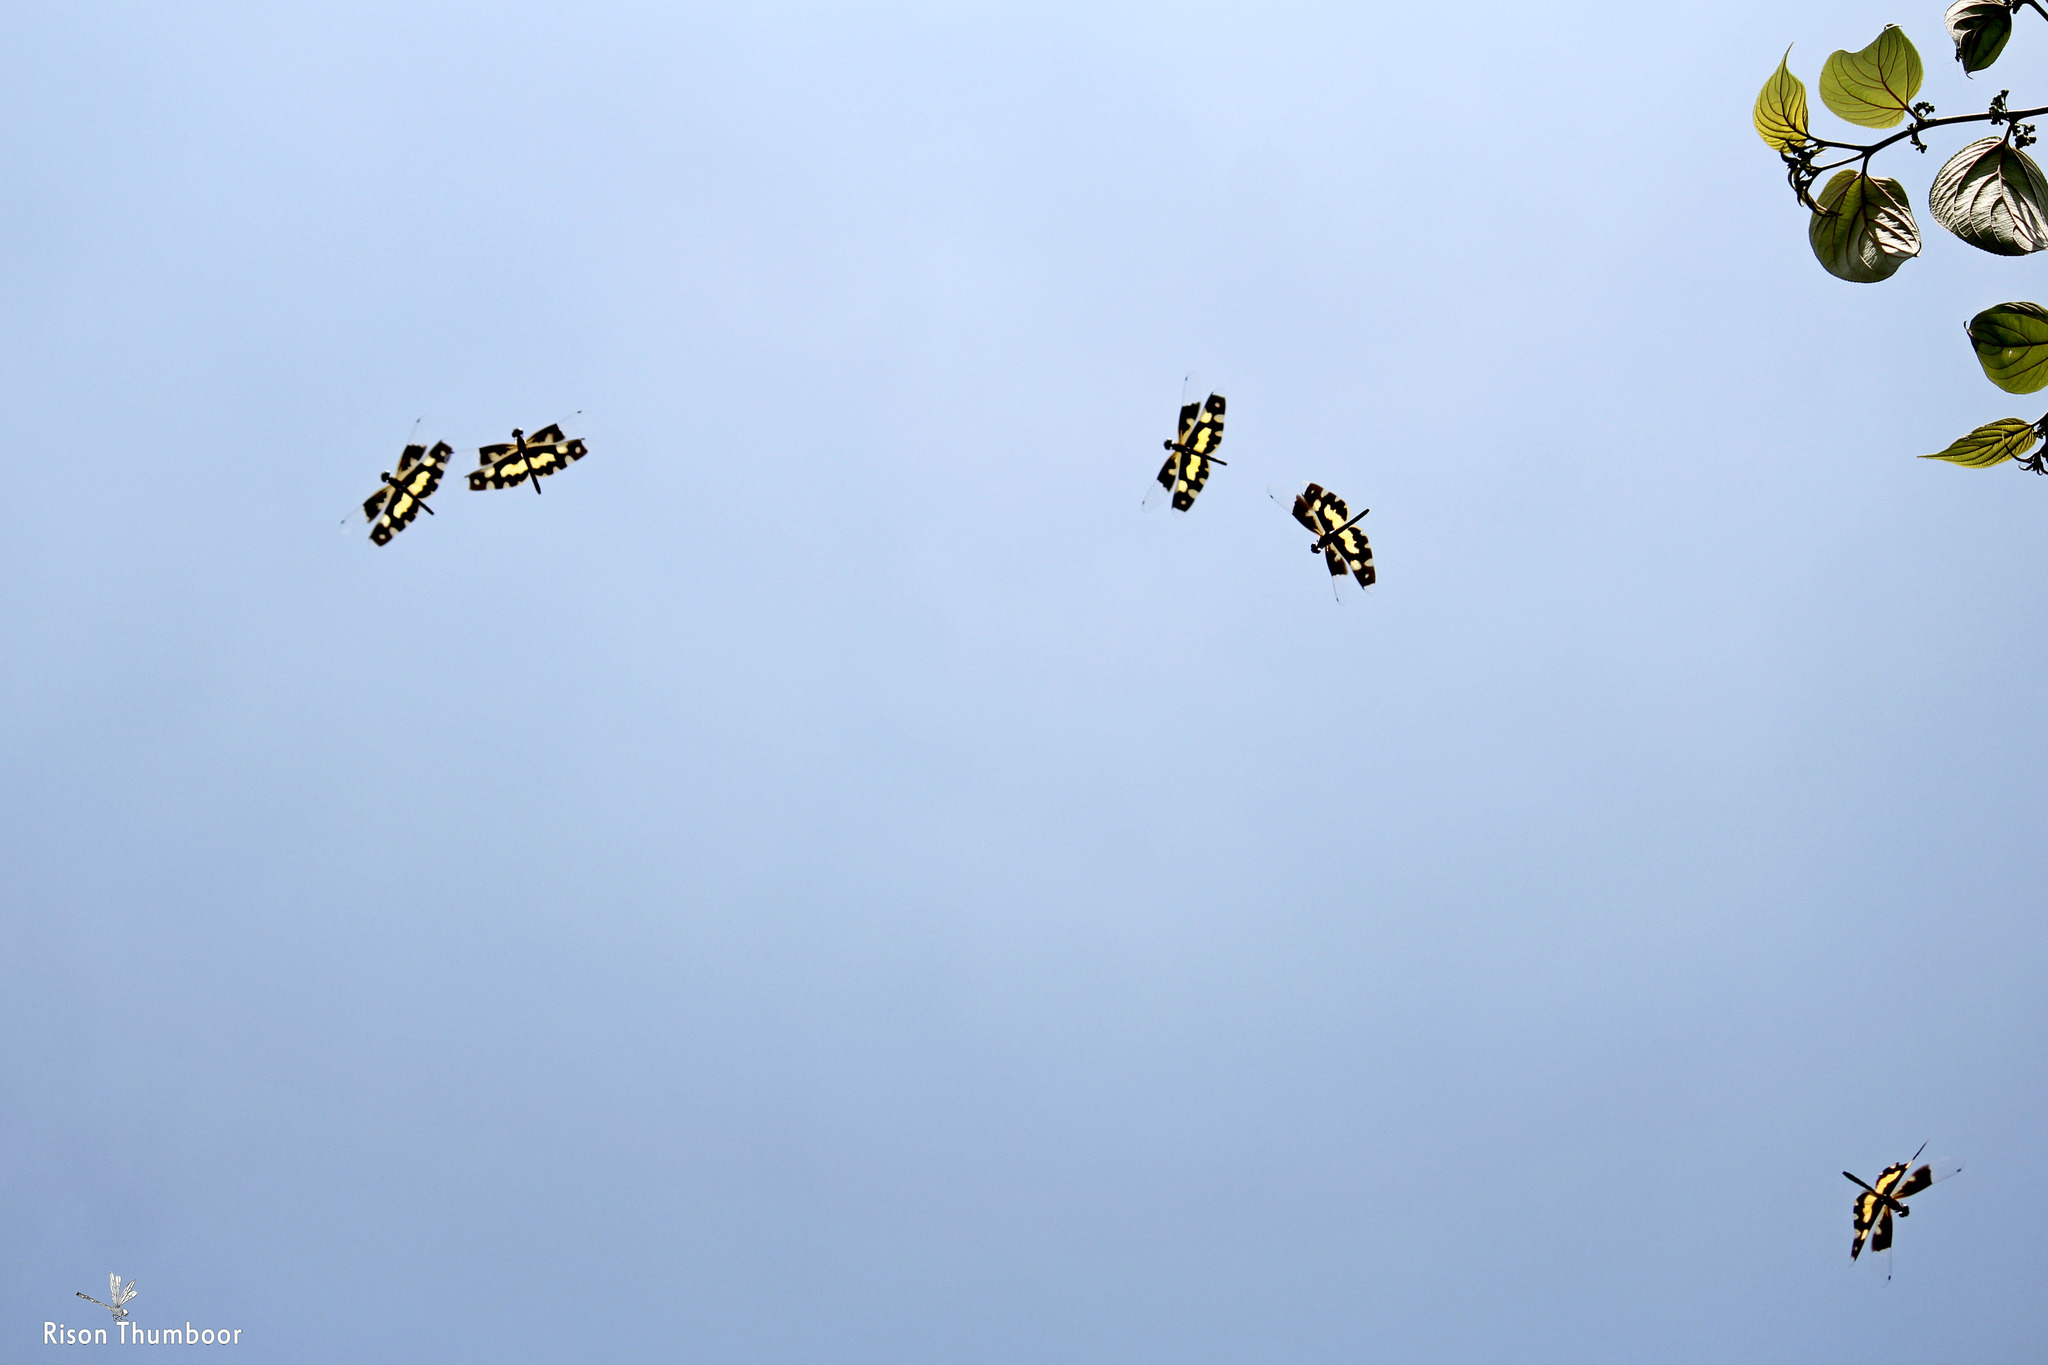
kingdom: Animalia
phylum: Arthropoda
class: Insecta
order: Odonata
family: Libellulidae
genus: Rhyothemis
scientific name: Rhyothemis variegata
